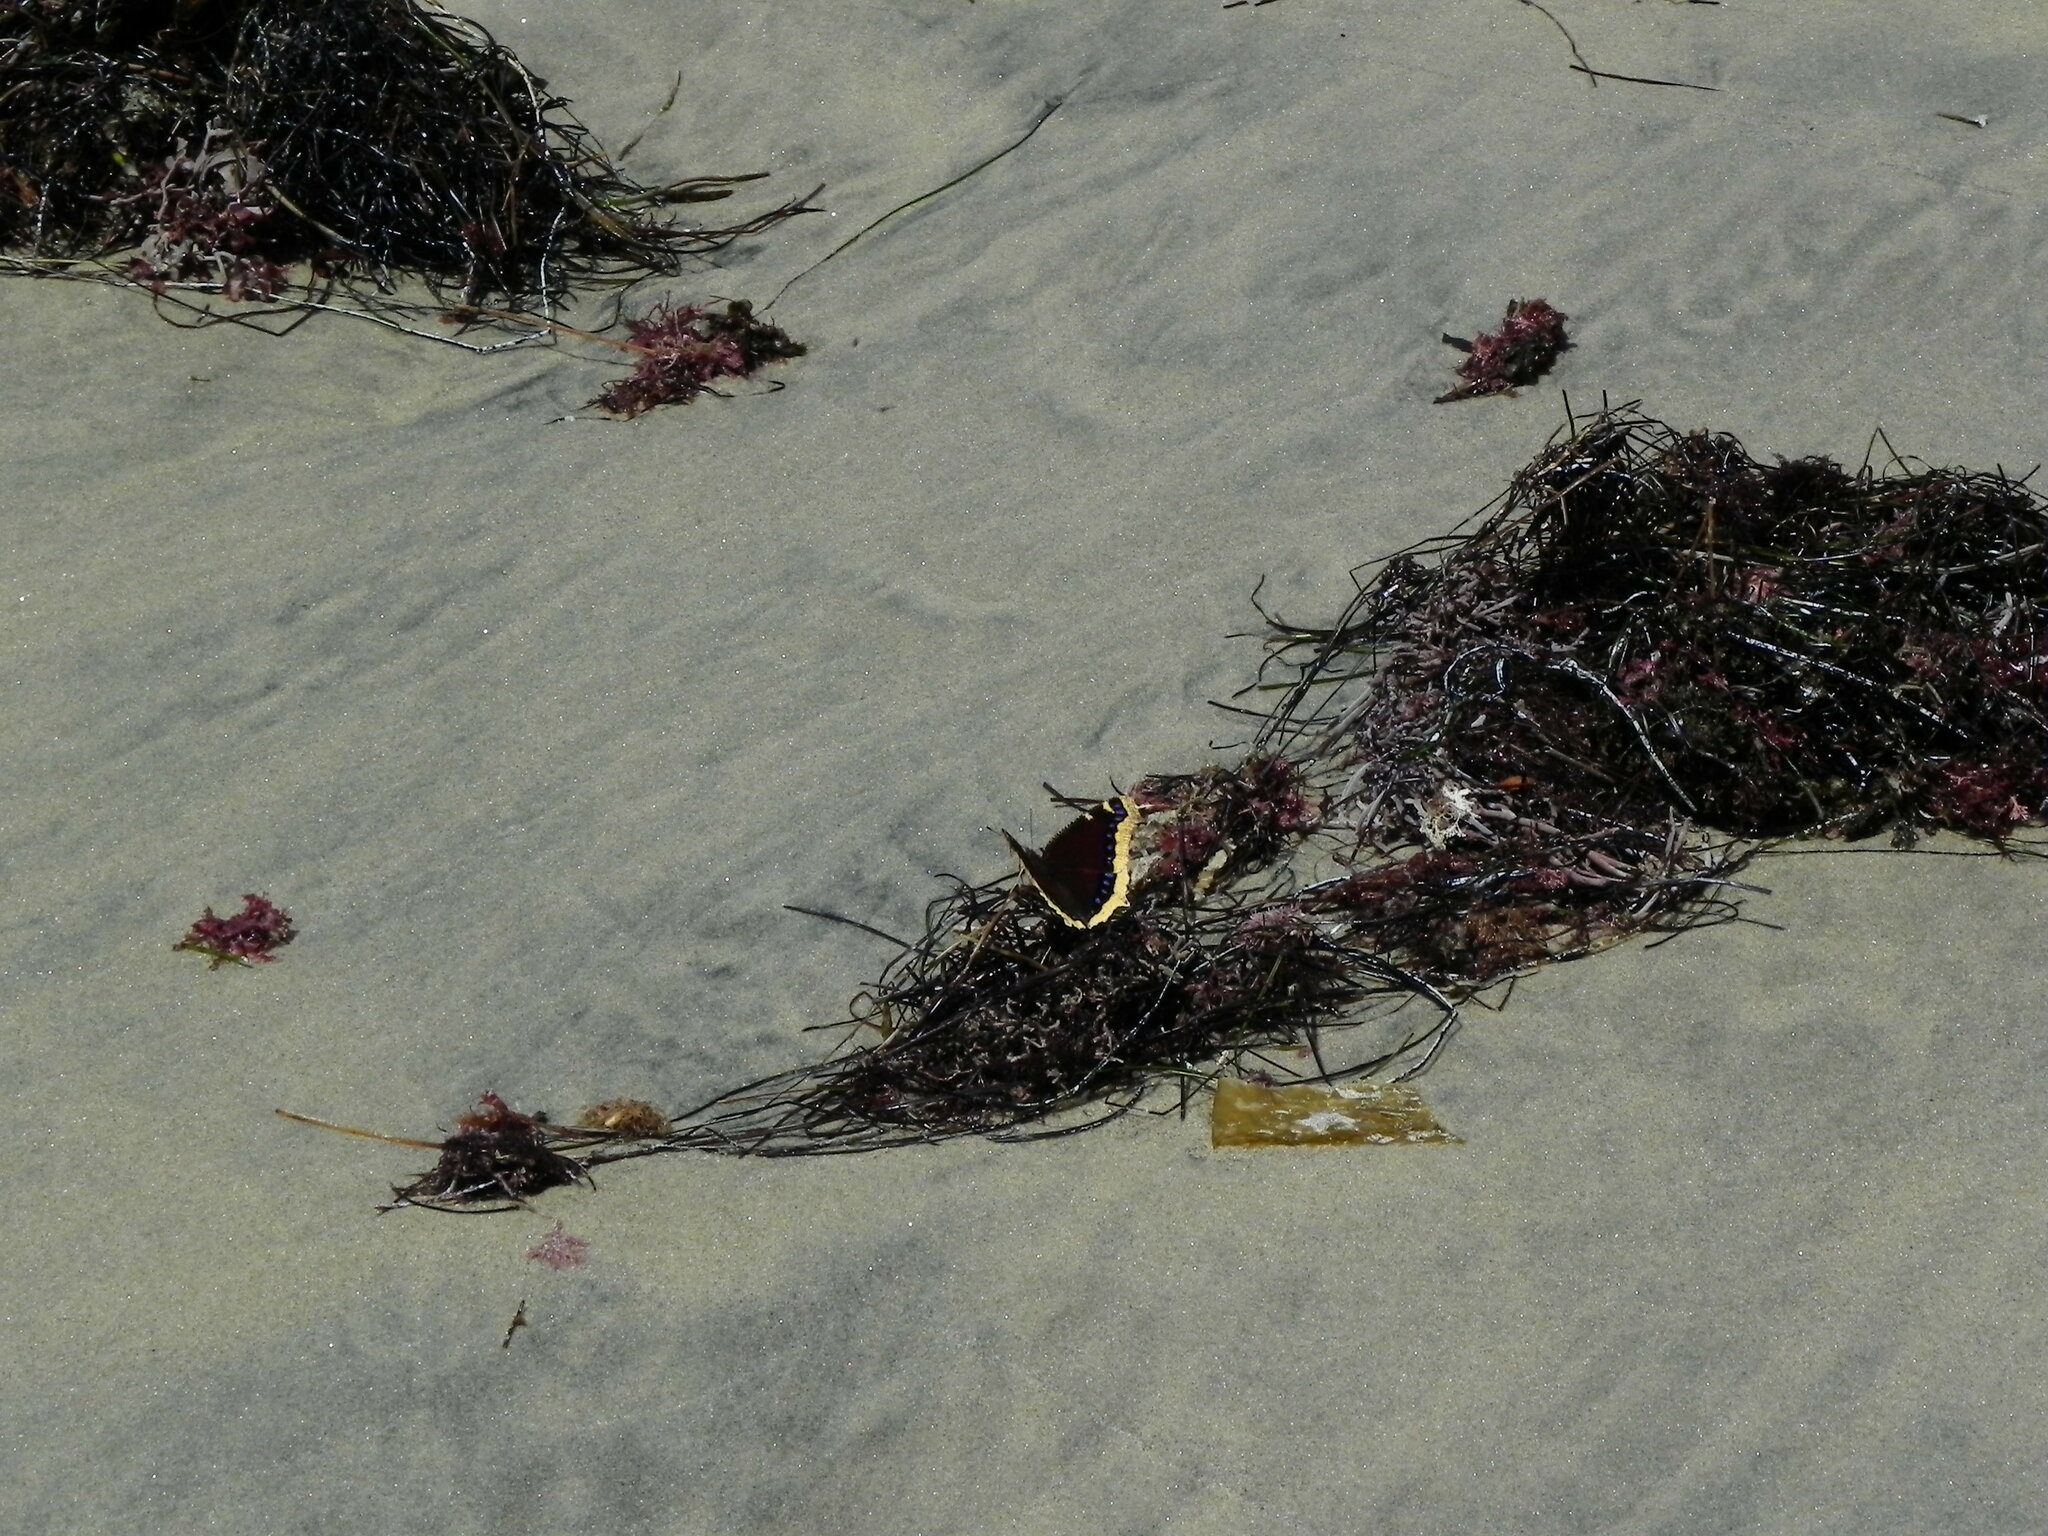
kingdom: Animalia
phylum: Arthropoda
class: Insecta
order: Lepidoptera
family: Nymphalidae
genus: Nymphalis
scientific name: Nymphalis antiopa
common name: Camberwell beauty
